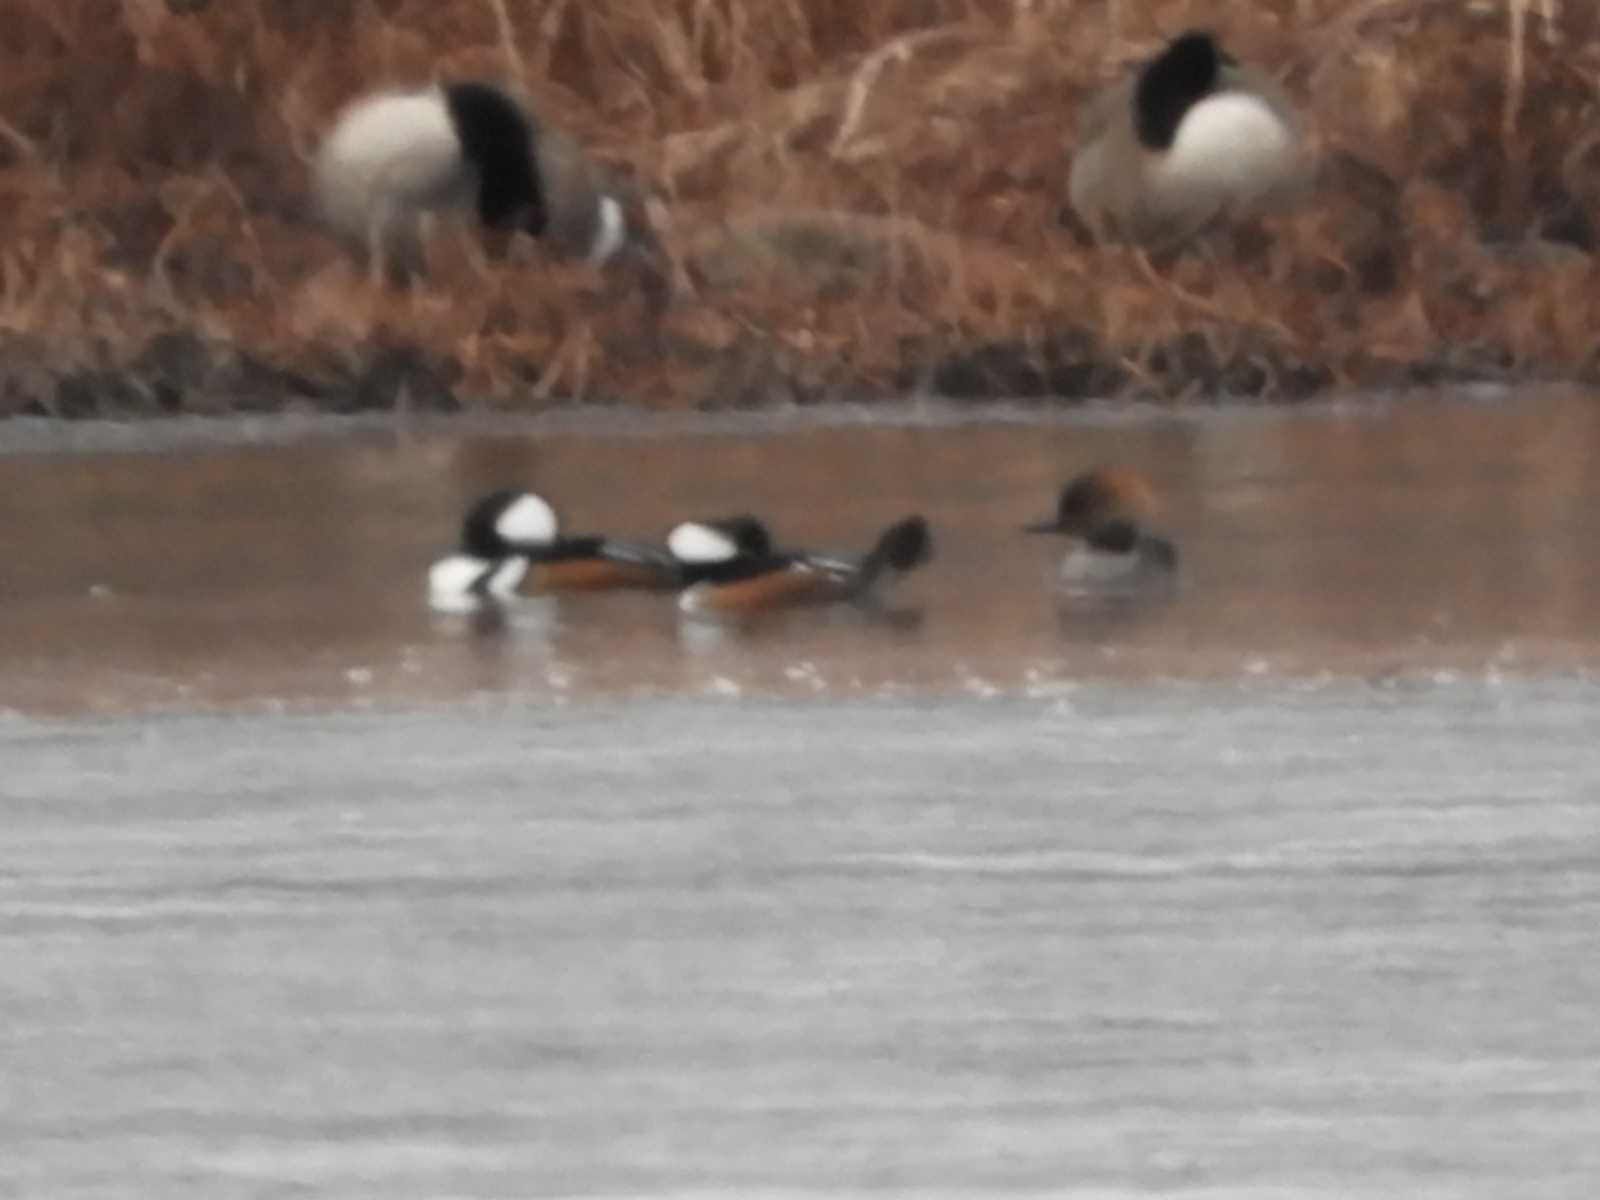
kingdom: Animalia
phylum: Chordata
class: Aves
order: Anseriformes
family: Anatidae
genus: Lophodytes
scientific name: Lophodytes cucullatus
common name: Hooded merganser
